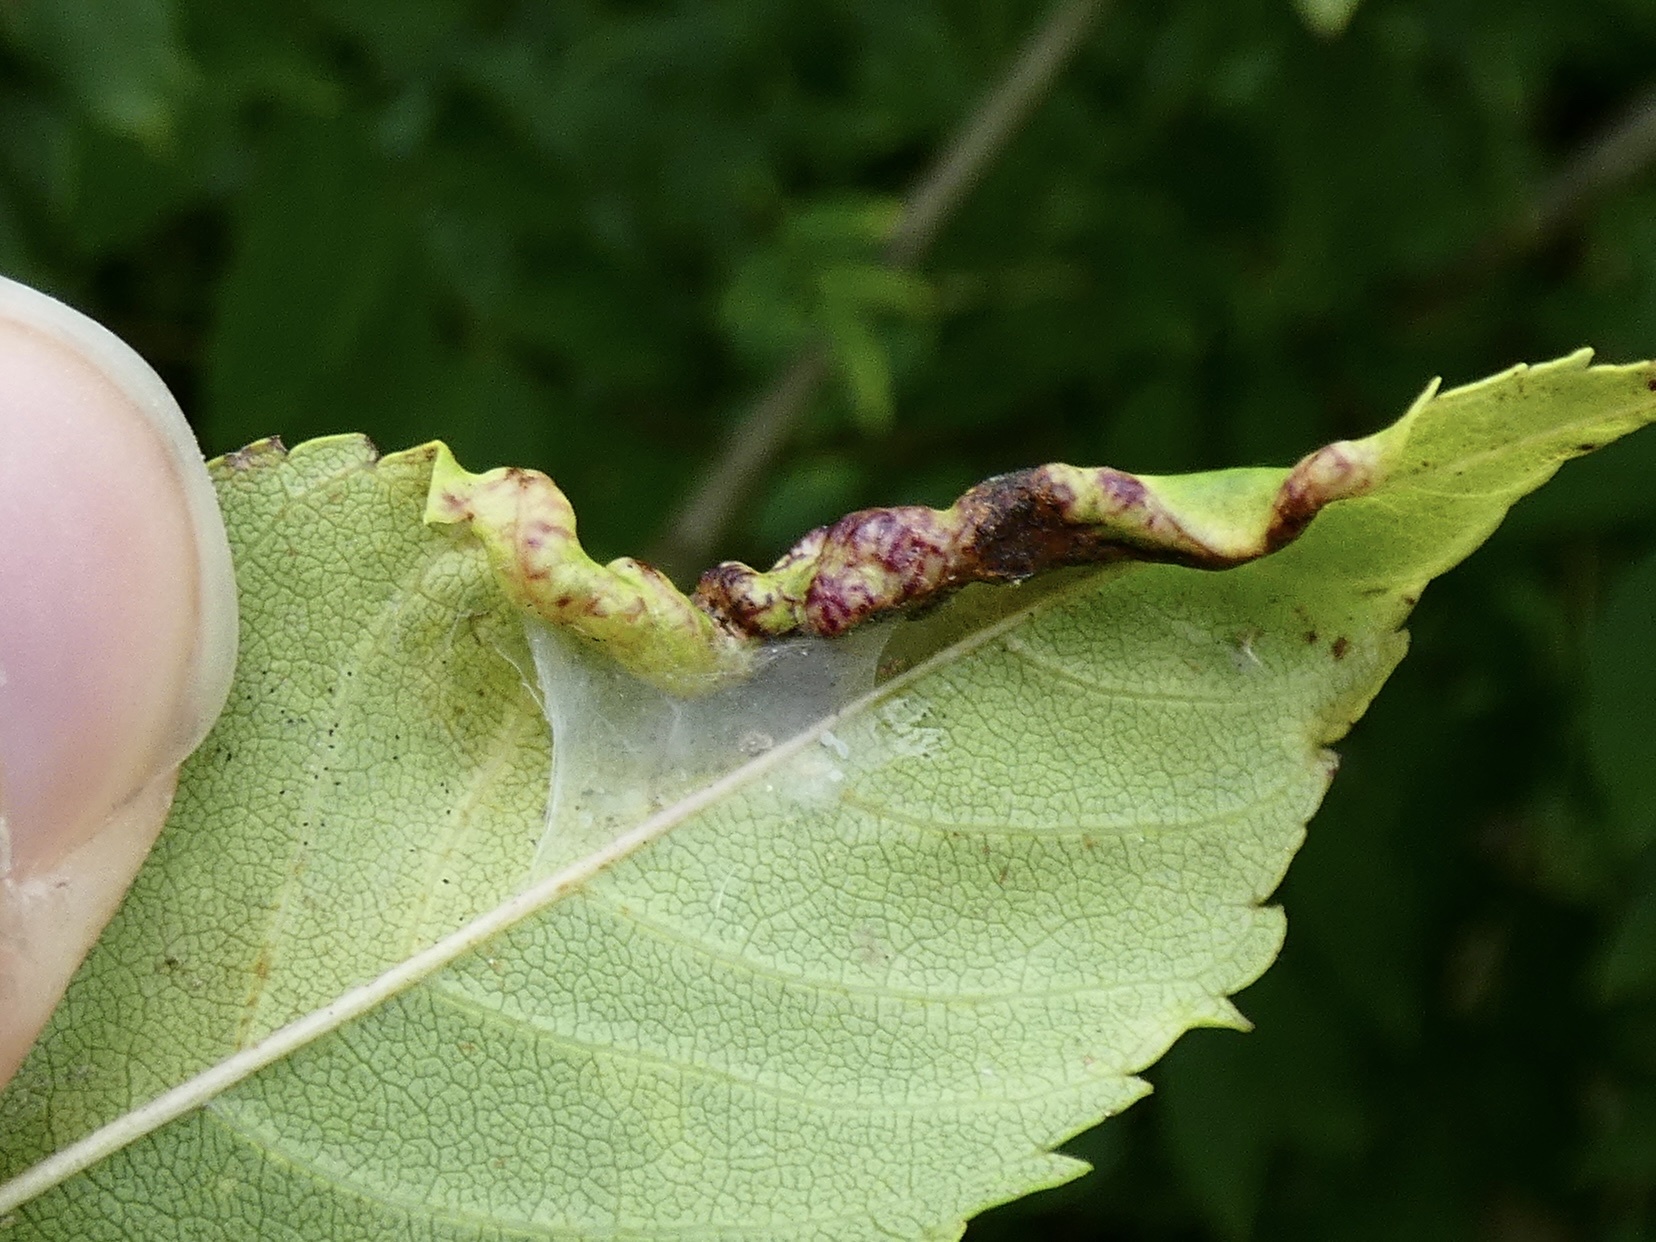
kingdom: Animalia
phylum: Arthropoda
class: Insecta
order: Hemiptera
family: Liviidae
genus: Psyllopsis
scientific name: Psyllopsis fraxini
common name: Jumping plant louse
